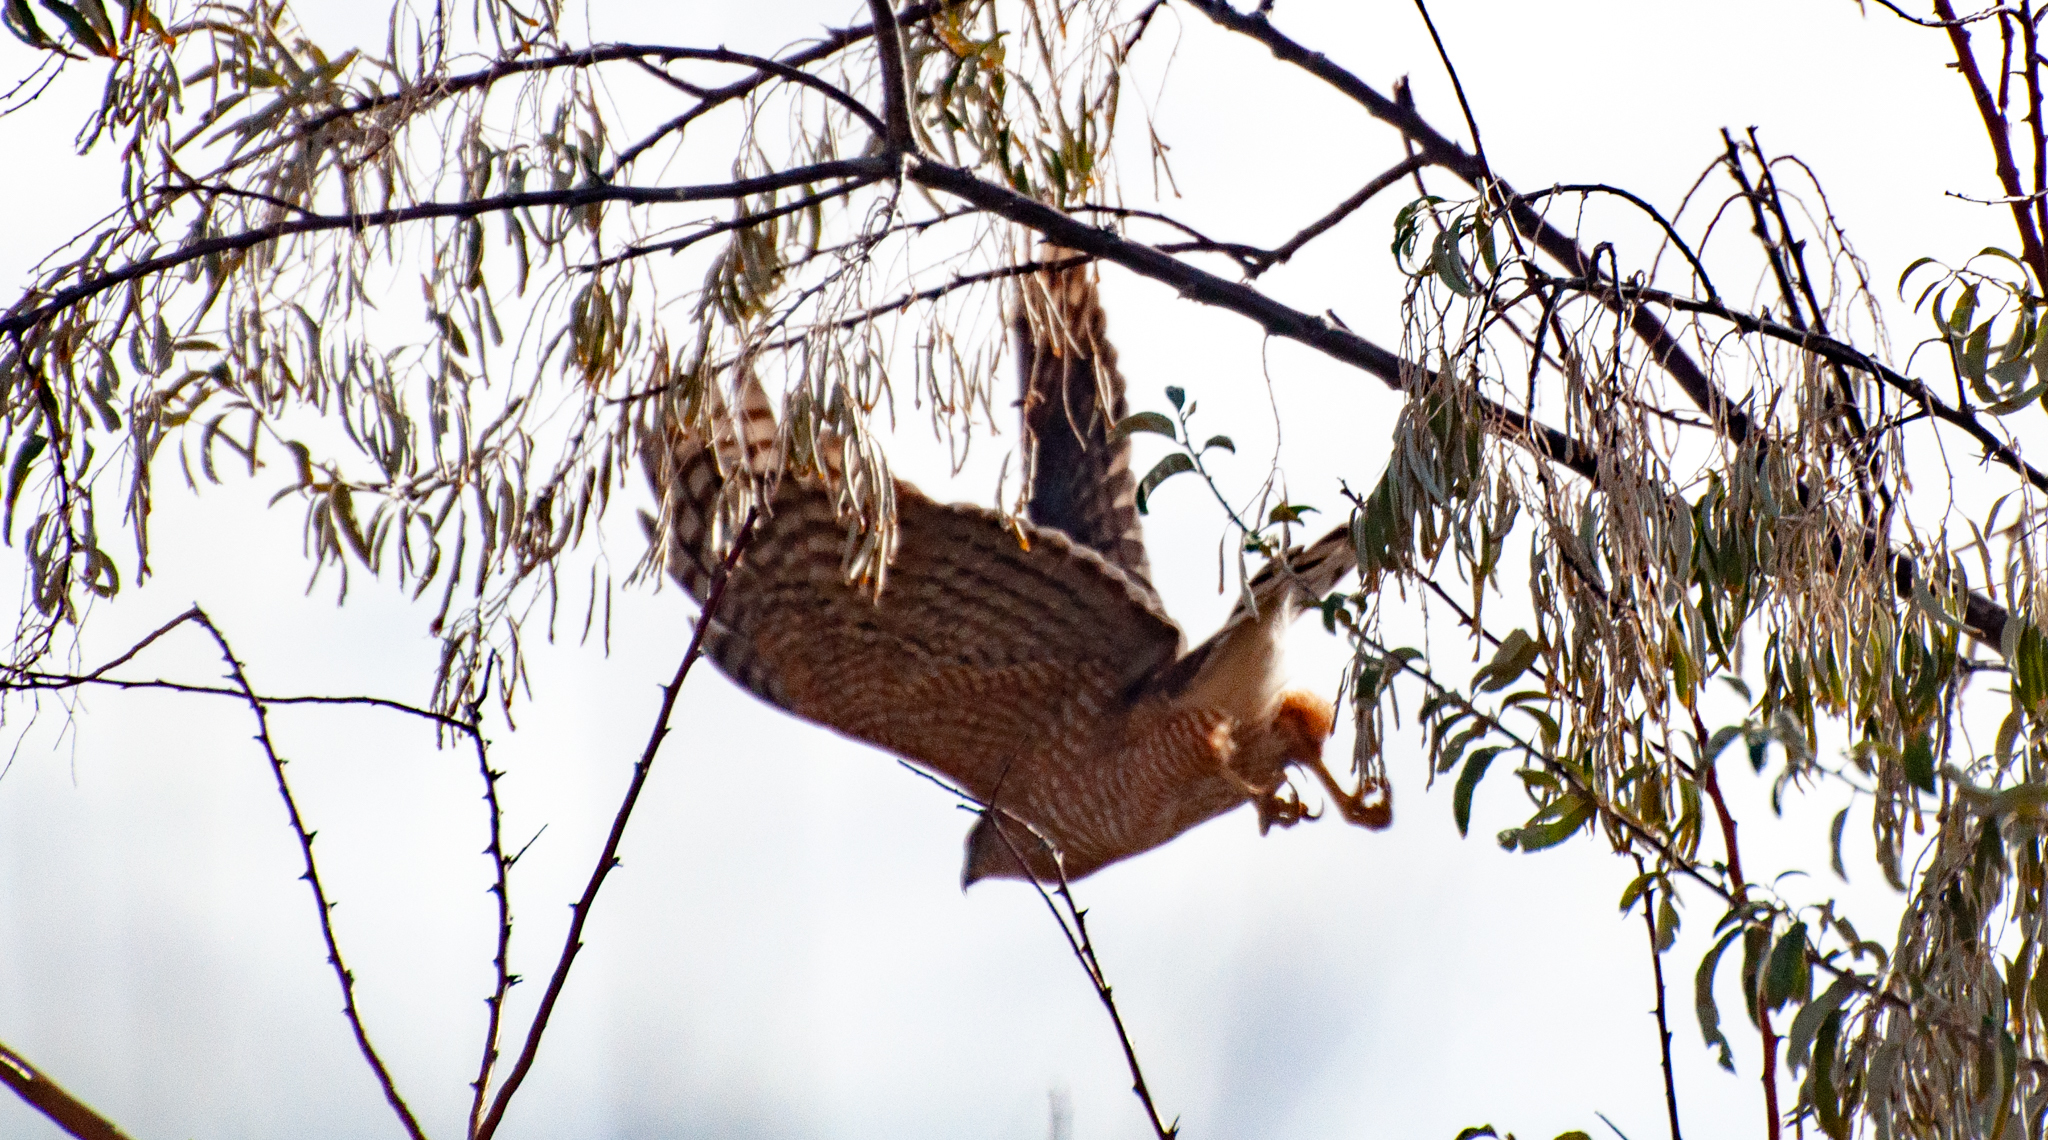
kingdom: Animalia
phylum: Chordata
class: Aves
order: Accipitriformes
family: Accipitridae
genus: Accipiter
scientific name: Accipiter cooperii
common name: Cooper's hawk
